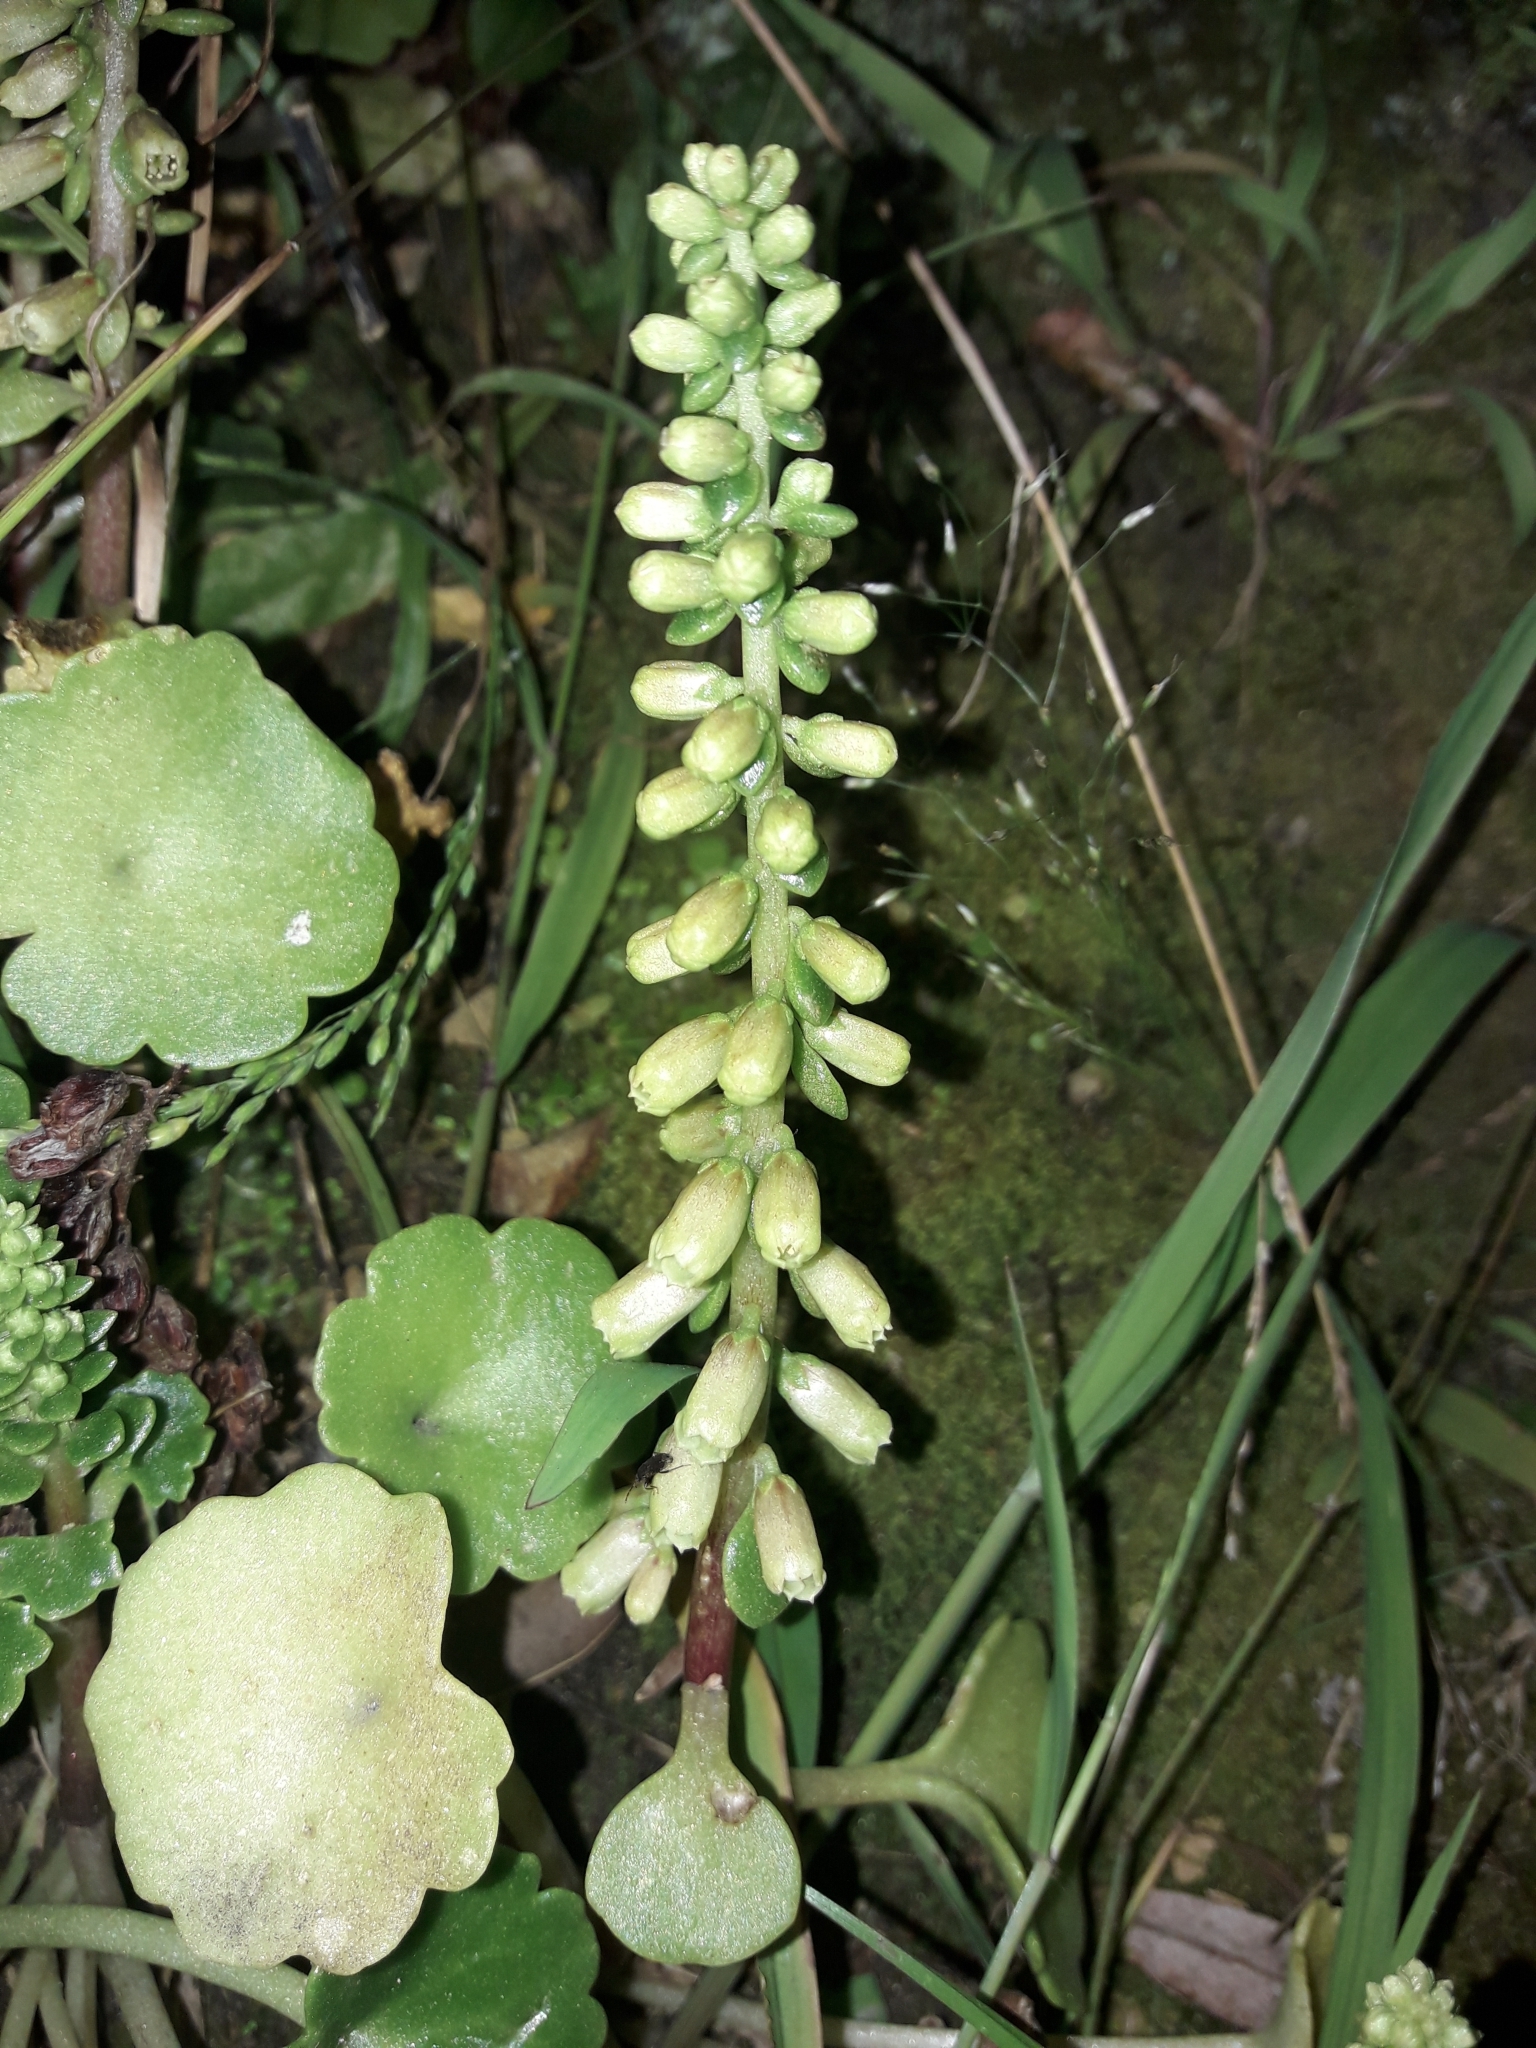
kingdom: Plantae
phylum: Tracheophyta
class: Magnoliopsida
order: Saxifragales
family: Crassulaceae
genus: Umbilicus
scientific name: Umbilicus rupestris
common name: Navelwort
